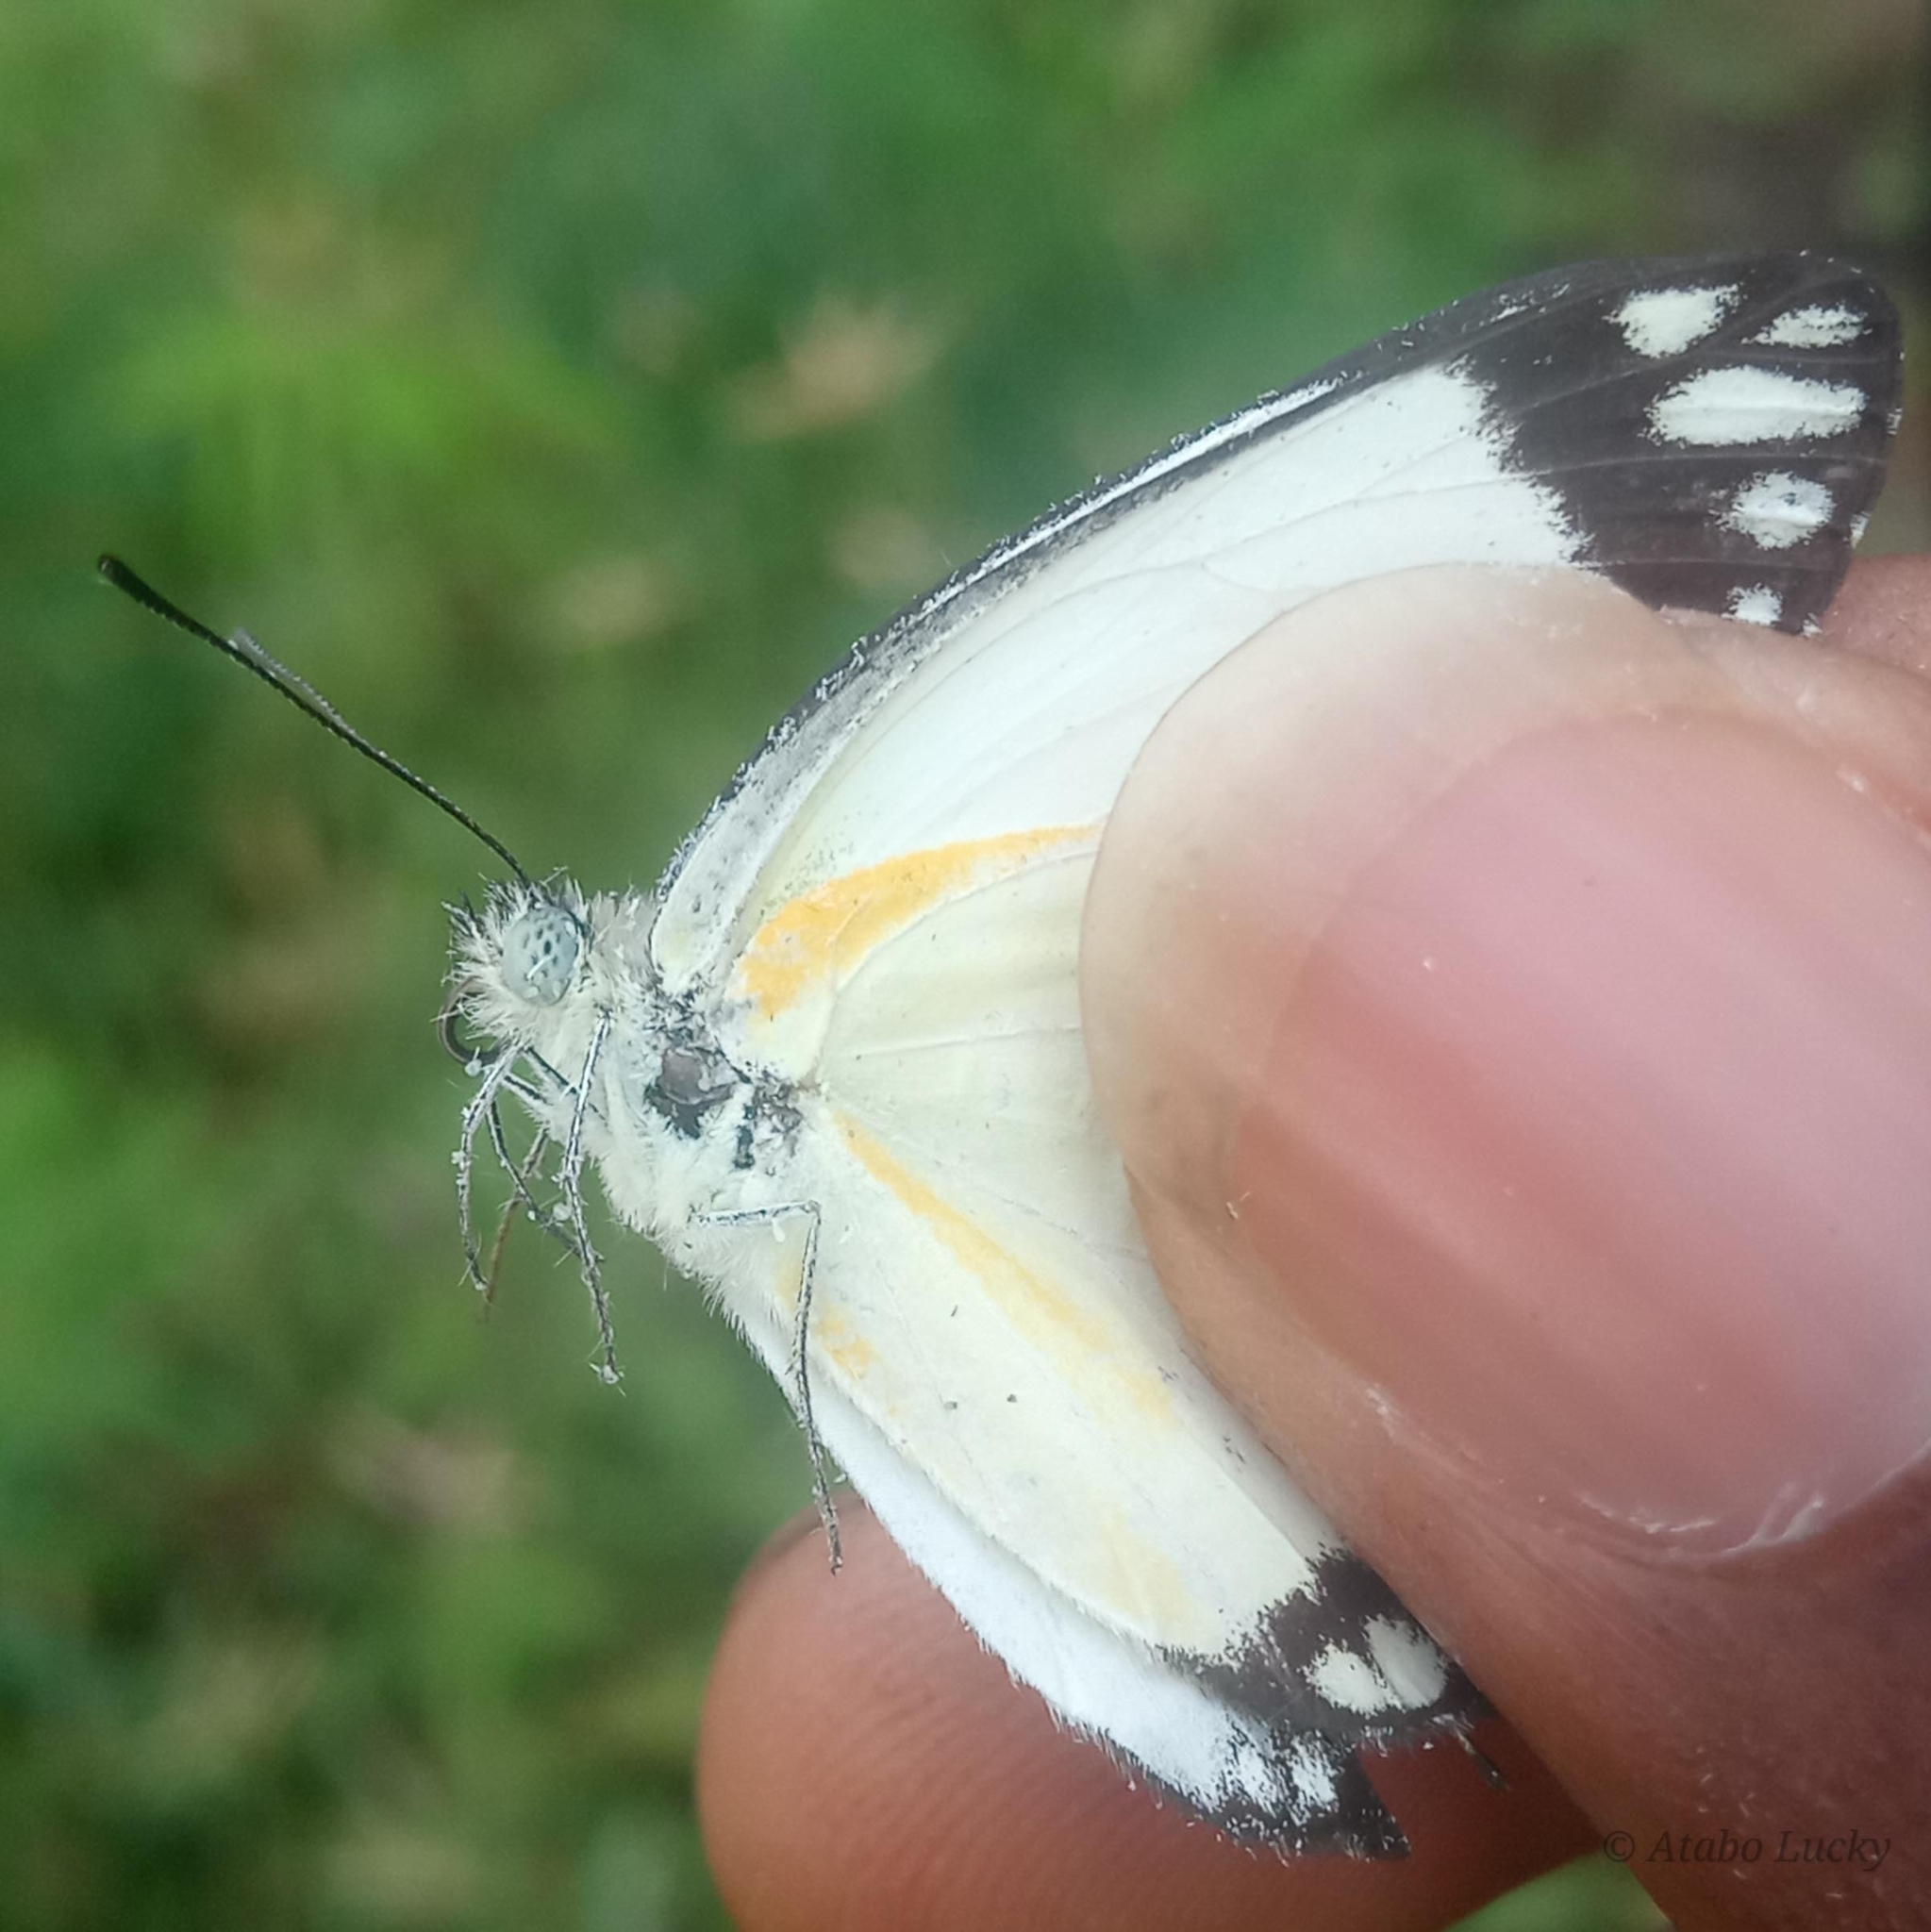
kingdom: Animalia
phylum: Arthropoda
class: Insecta
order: Lepidoptera
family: Pieridae
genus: Belenois
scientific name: Belenois creona
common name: African caper white
